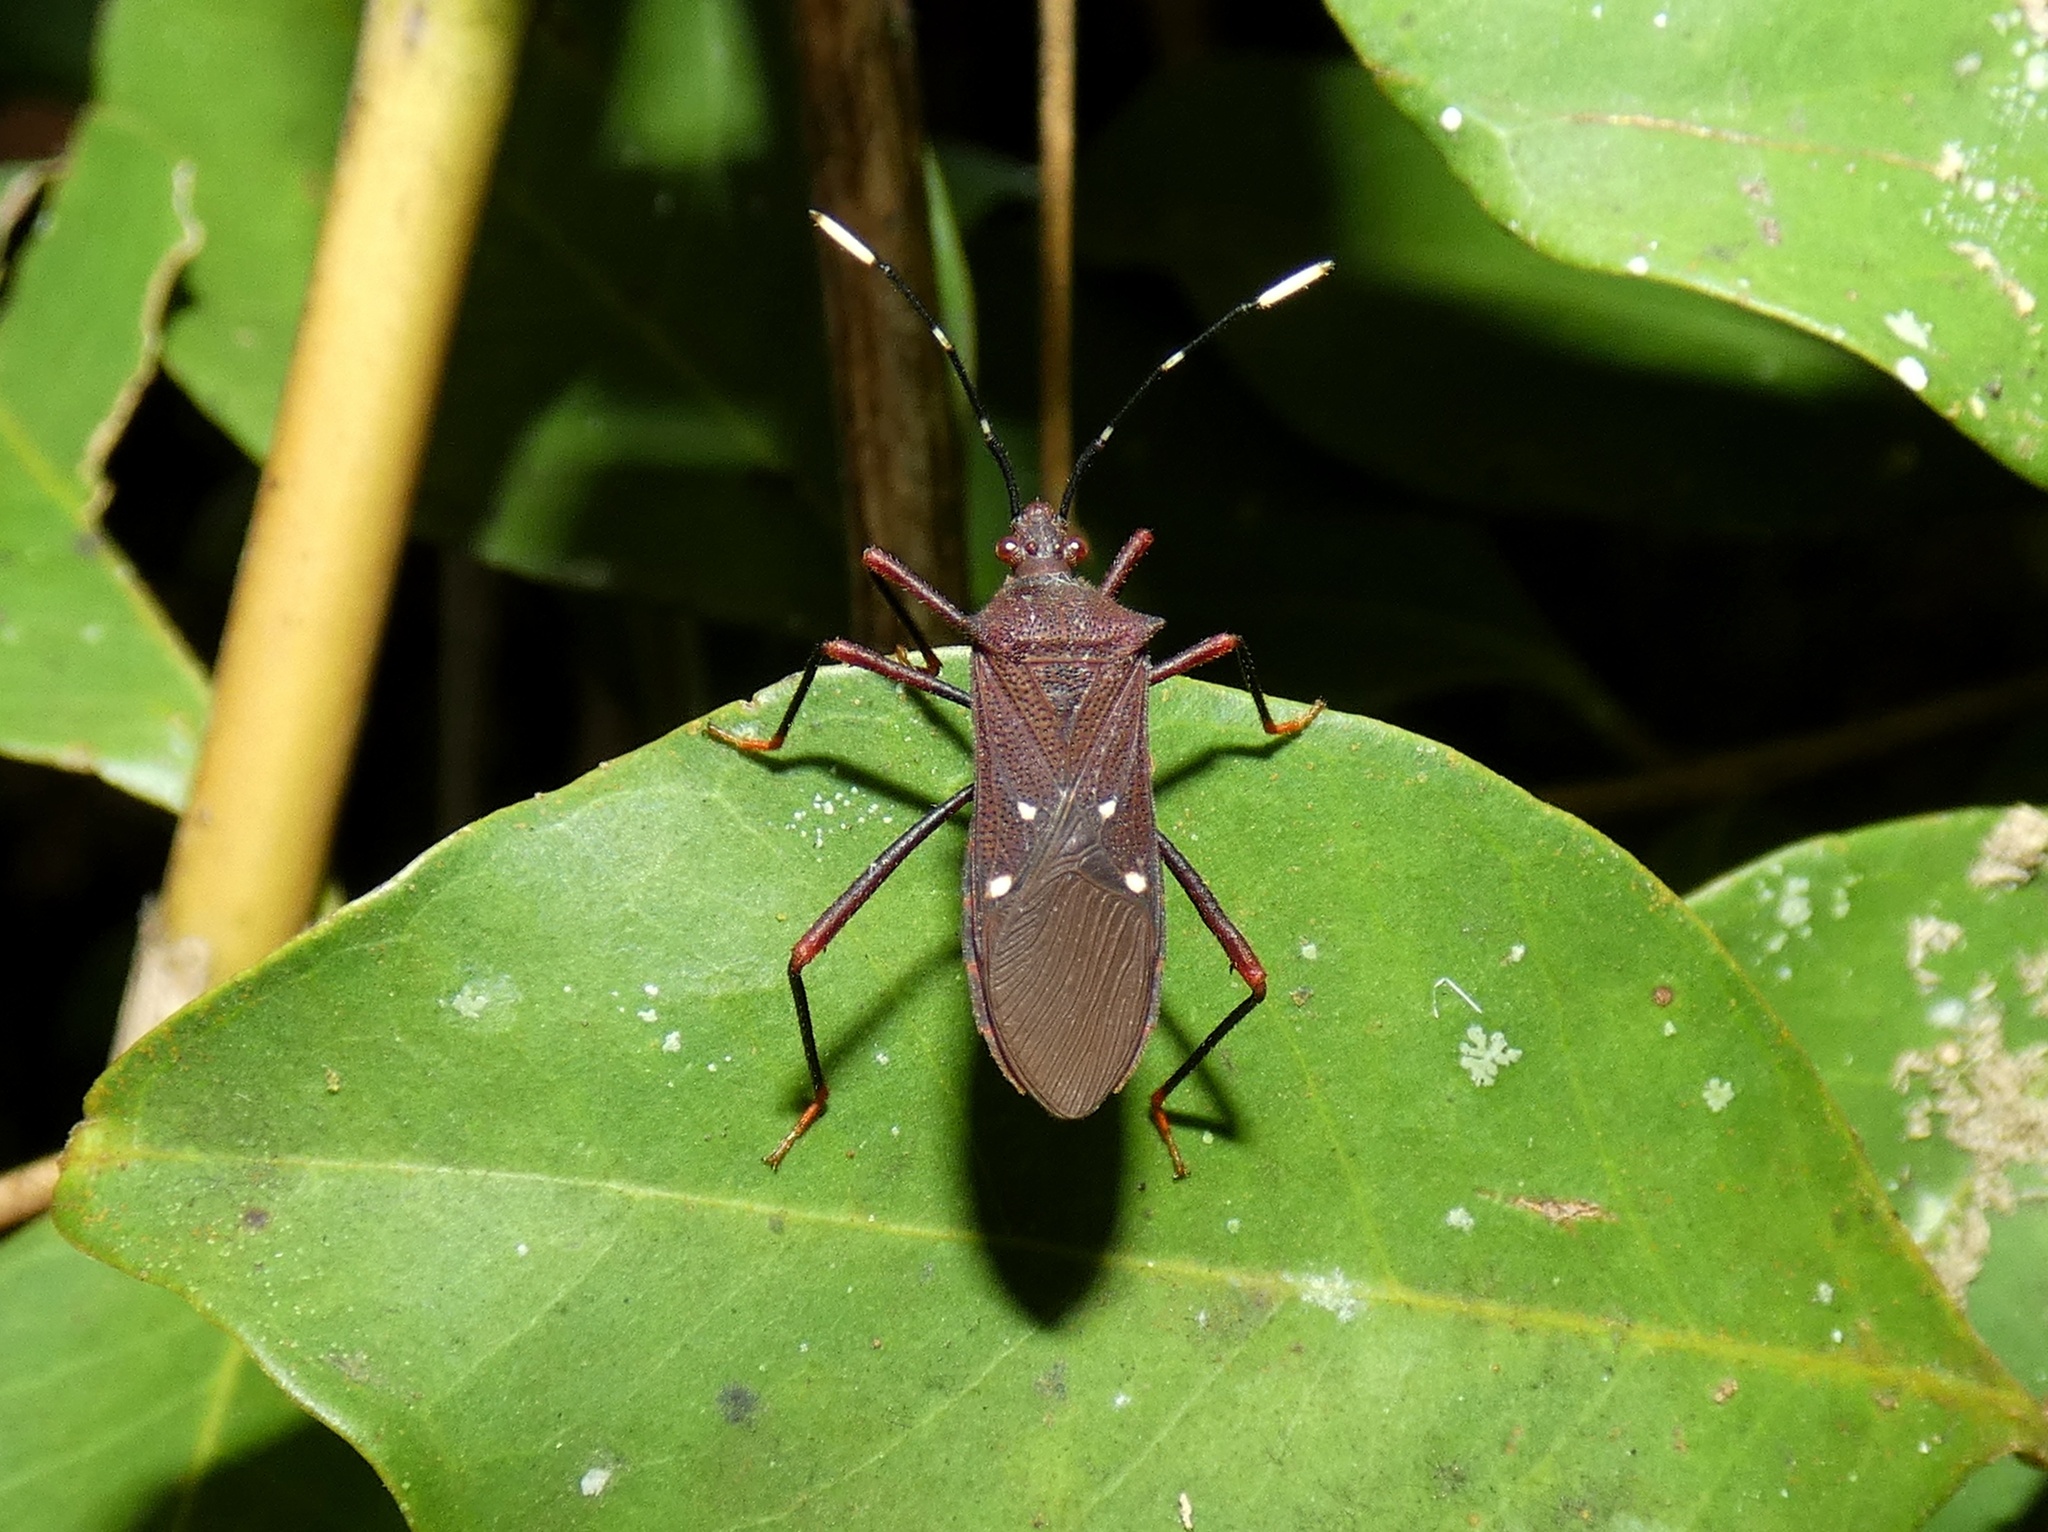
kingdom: Animalia
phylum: Arthropoda
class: Insecta
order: Hemiptera
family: Coreidae
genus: Leptoscelis
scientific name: Leptoscelis quadrisignatus
